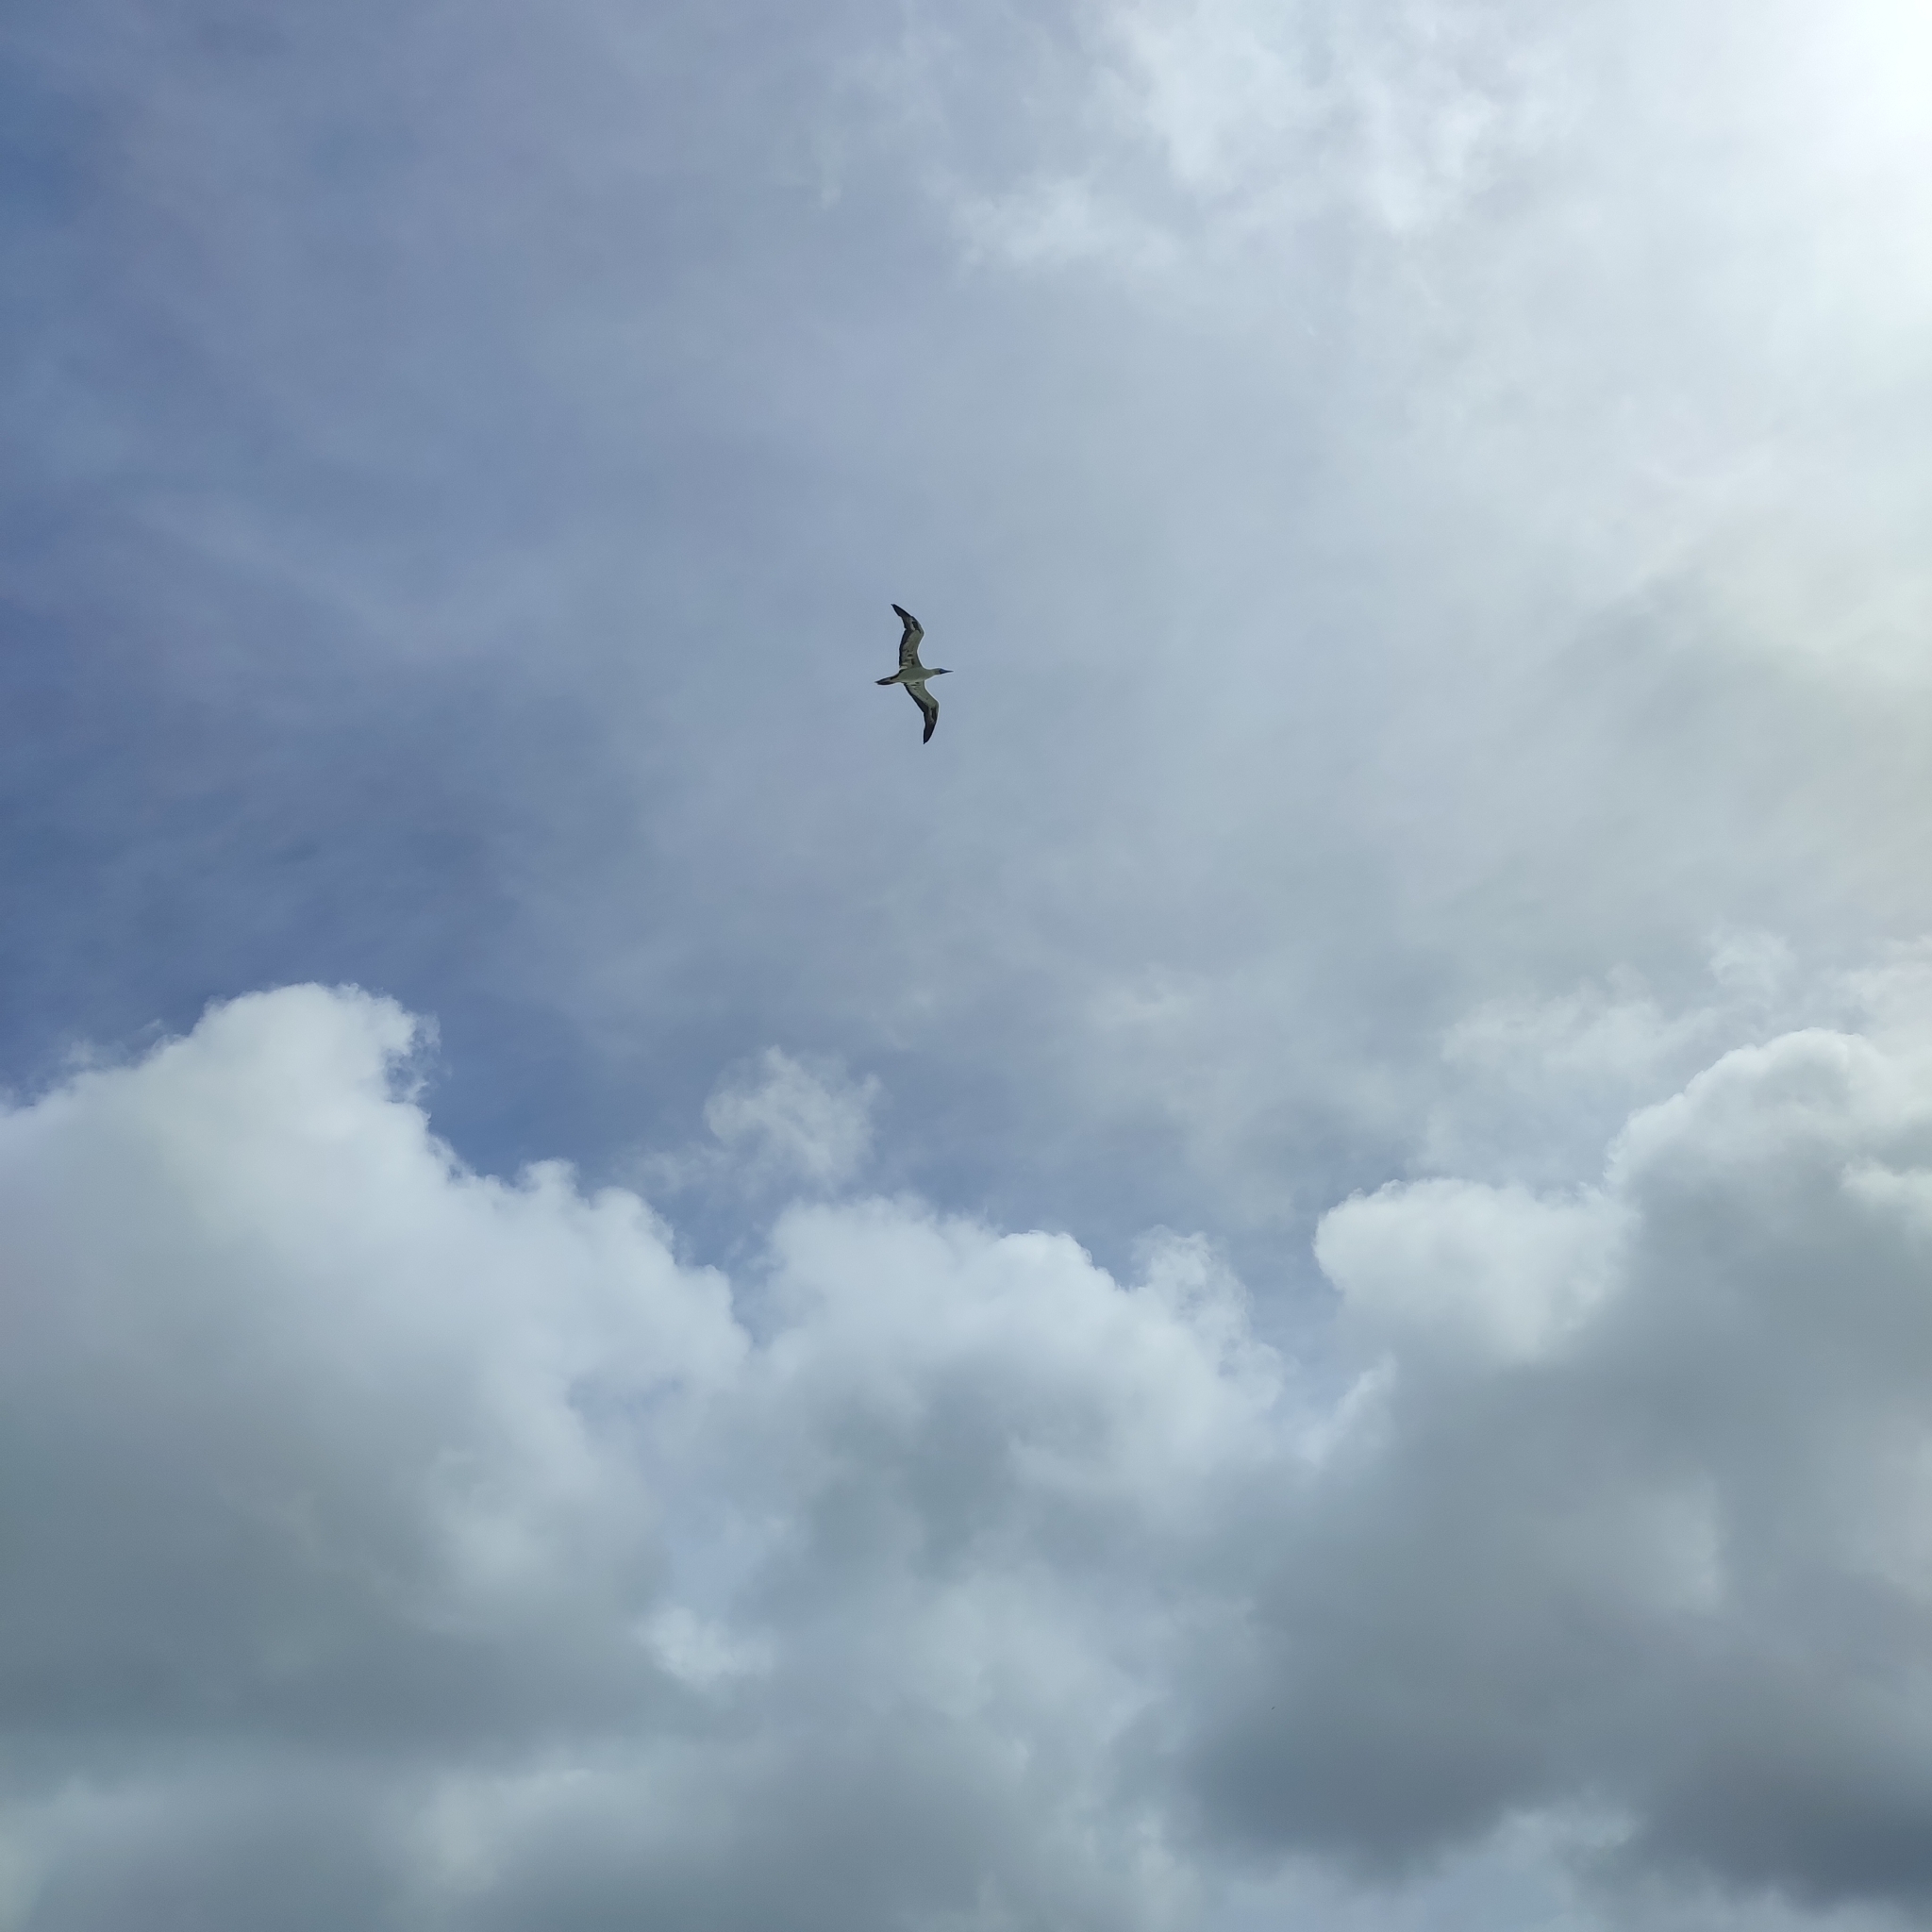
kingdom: Animalia
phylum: Chordata
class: Aves
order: Suliformes
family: Sulidae
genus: Sula
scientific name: Sula sula
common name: Red-footed booby
